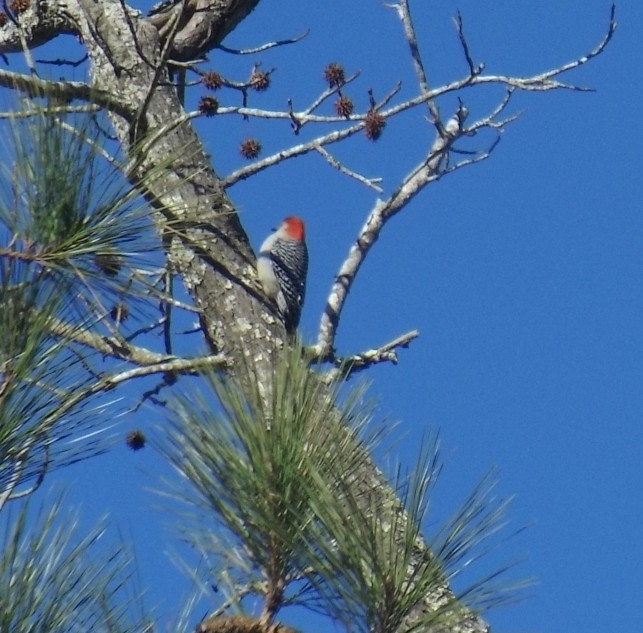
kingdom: Animalia
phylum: Chordata
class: Aves
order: Piciformes
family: Picidae
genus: Melanerpes
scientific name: Melanerpes carolinus
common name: Red-bellied woodpecker
